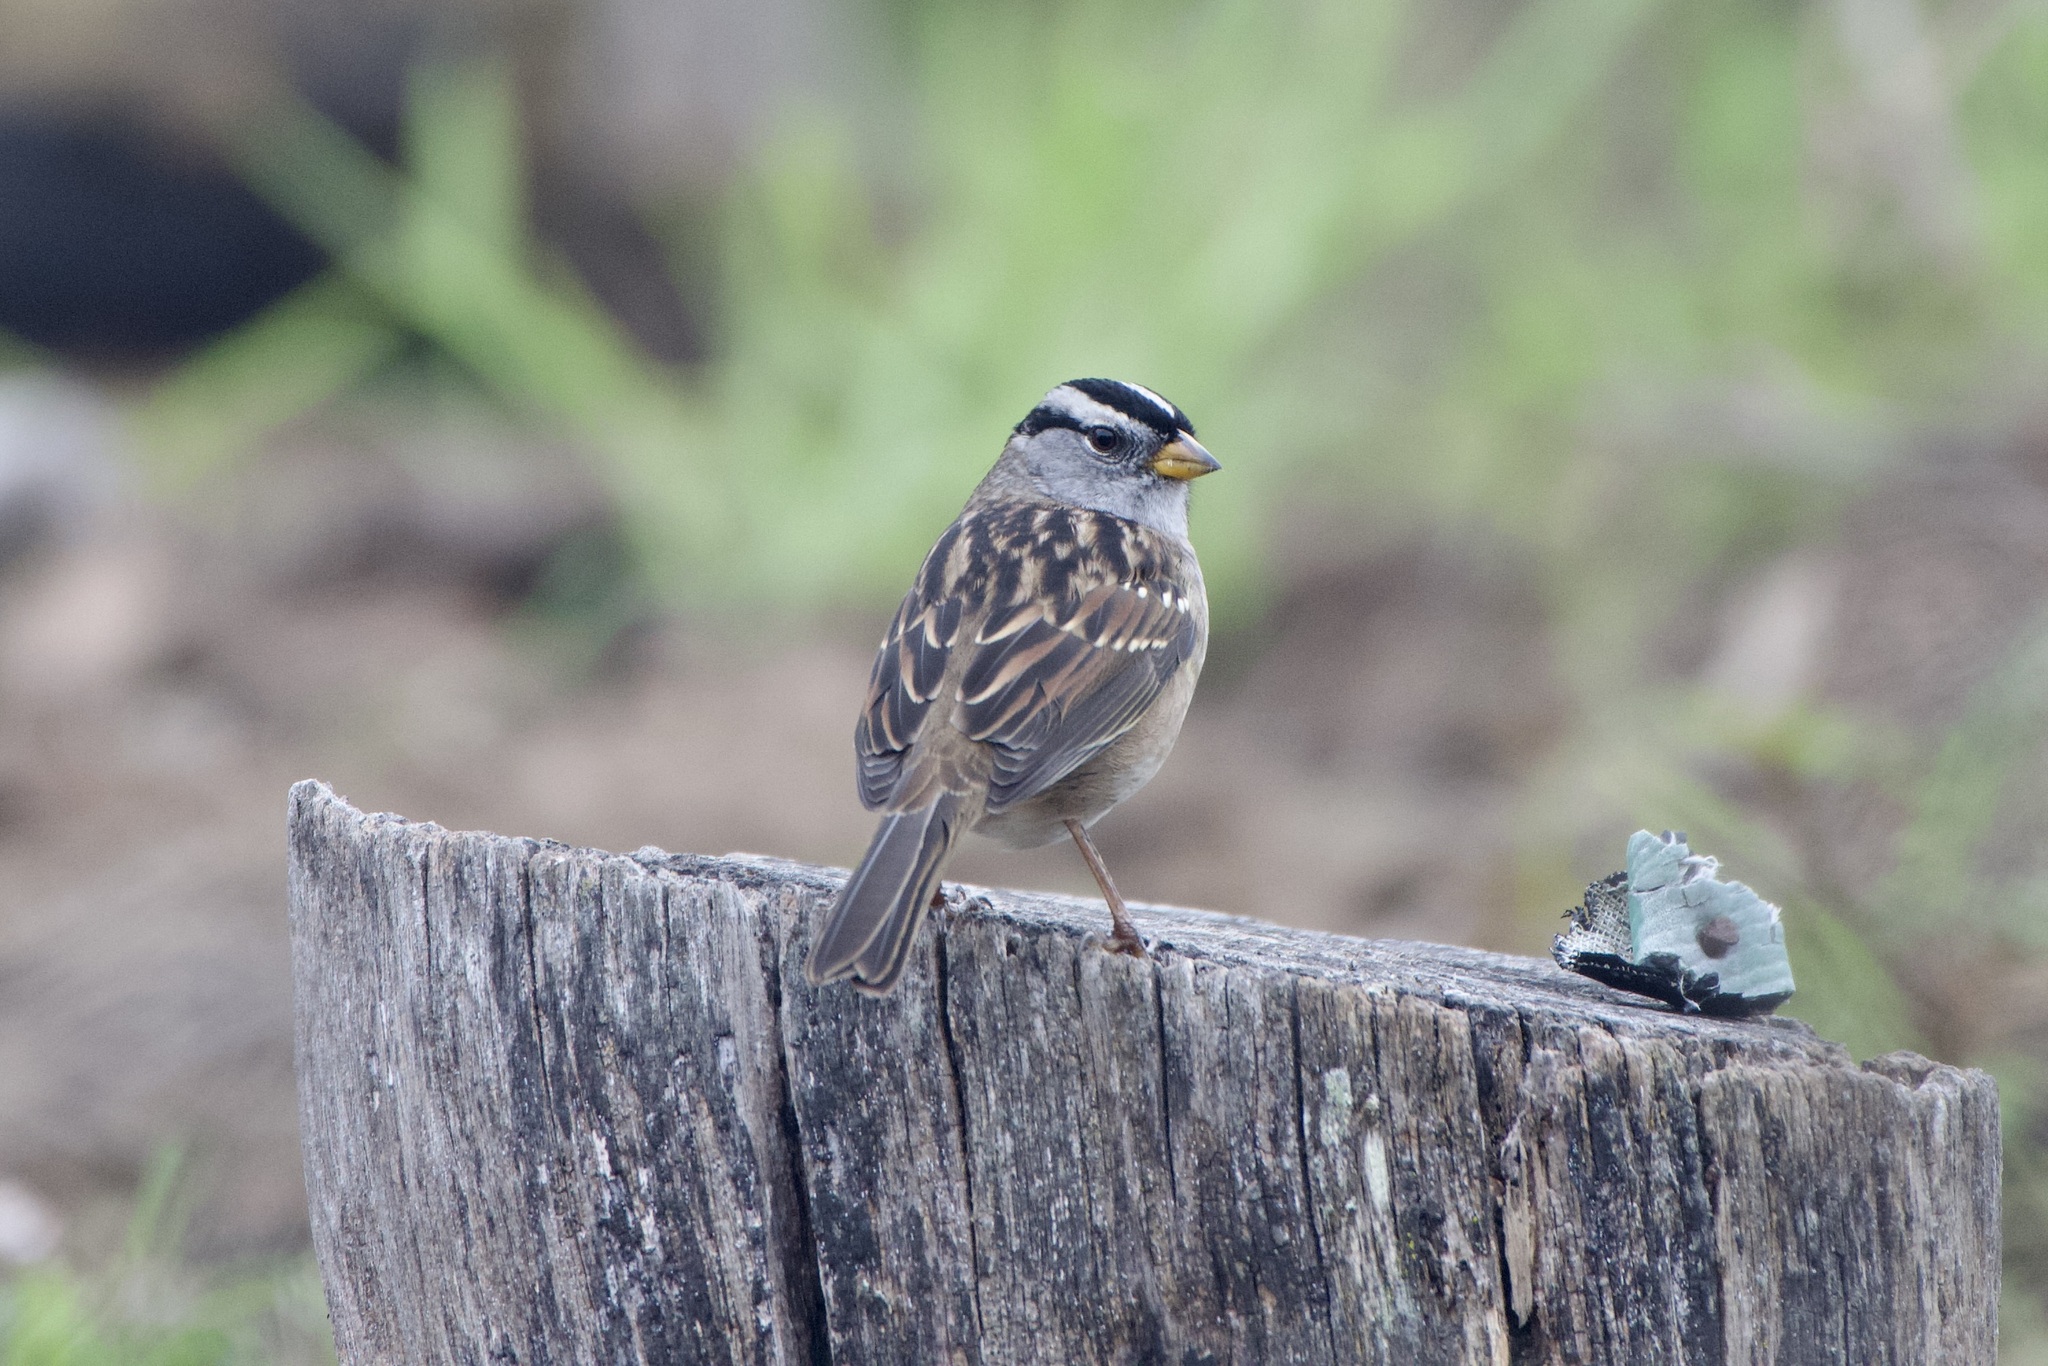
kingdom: Animalia
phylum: Chordata
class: Aves
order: Passeriformes
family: Passerellidae
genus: Zonotrichia
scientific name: Zonotrichia leucophrys
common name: White-crowned sparrow
